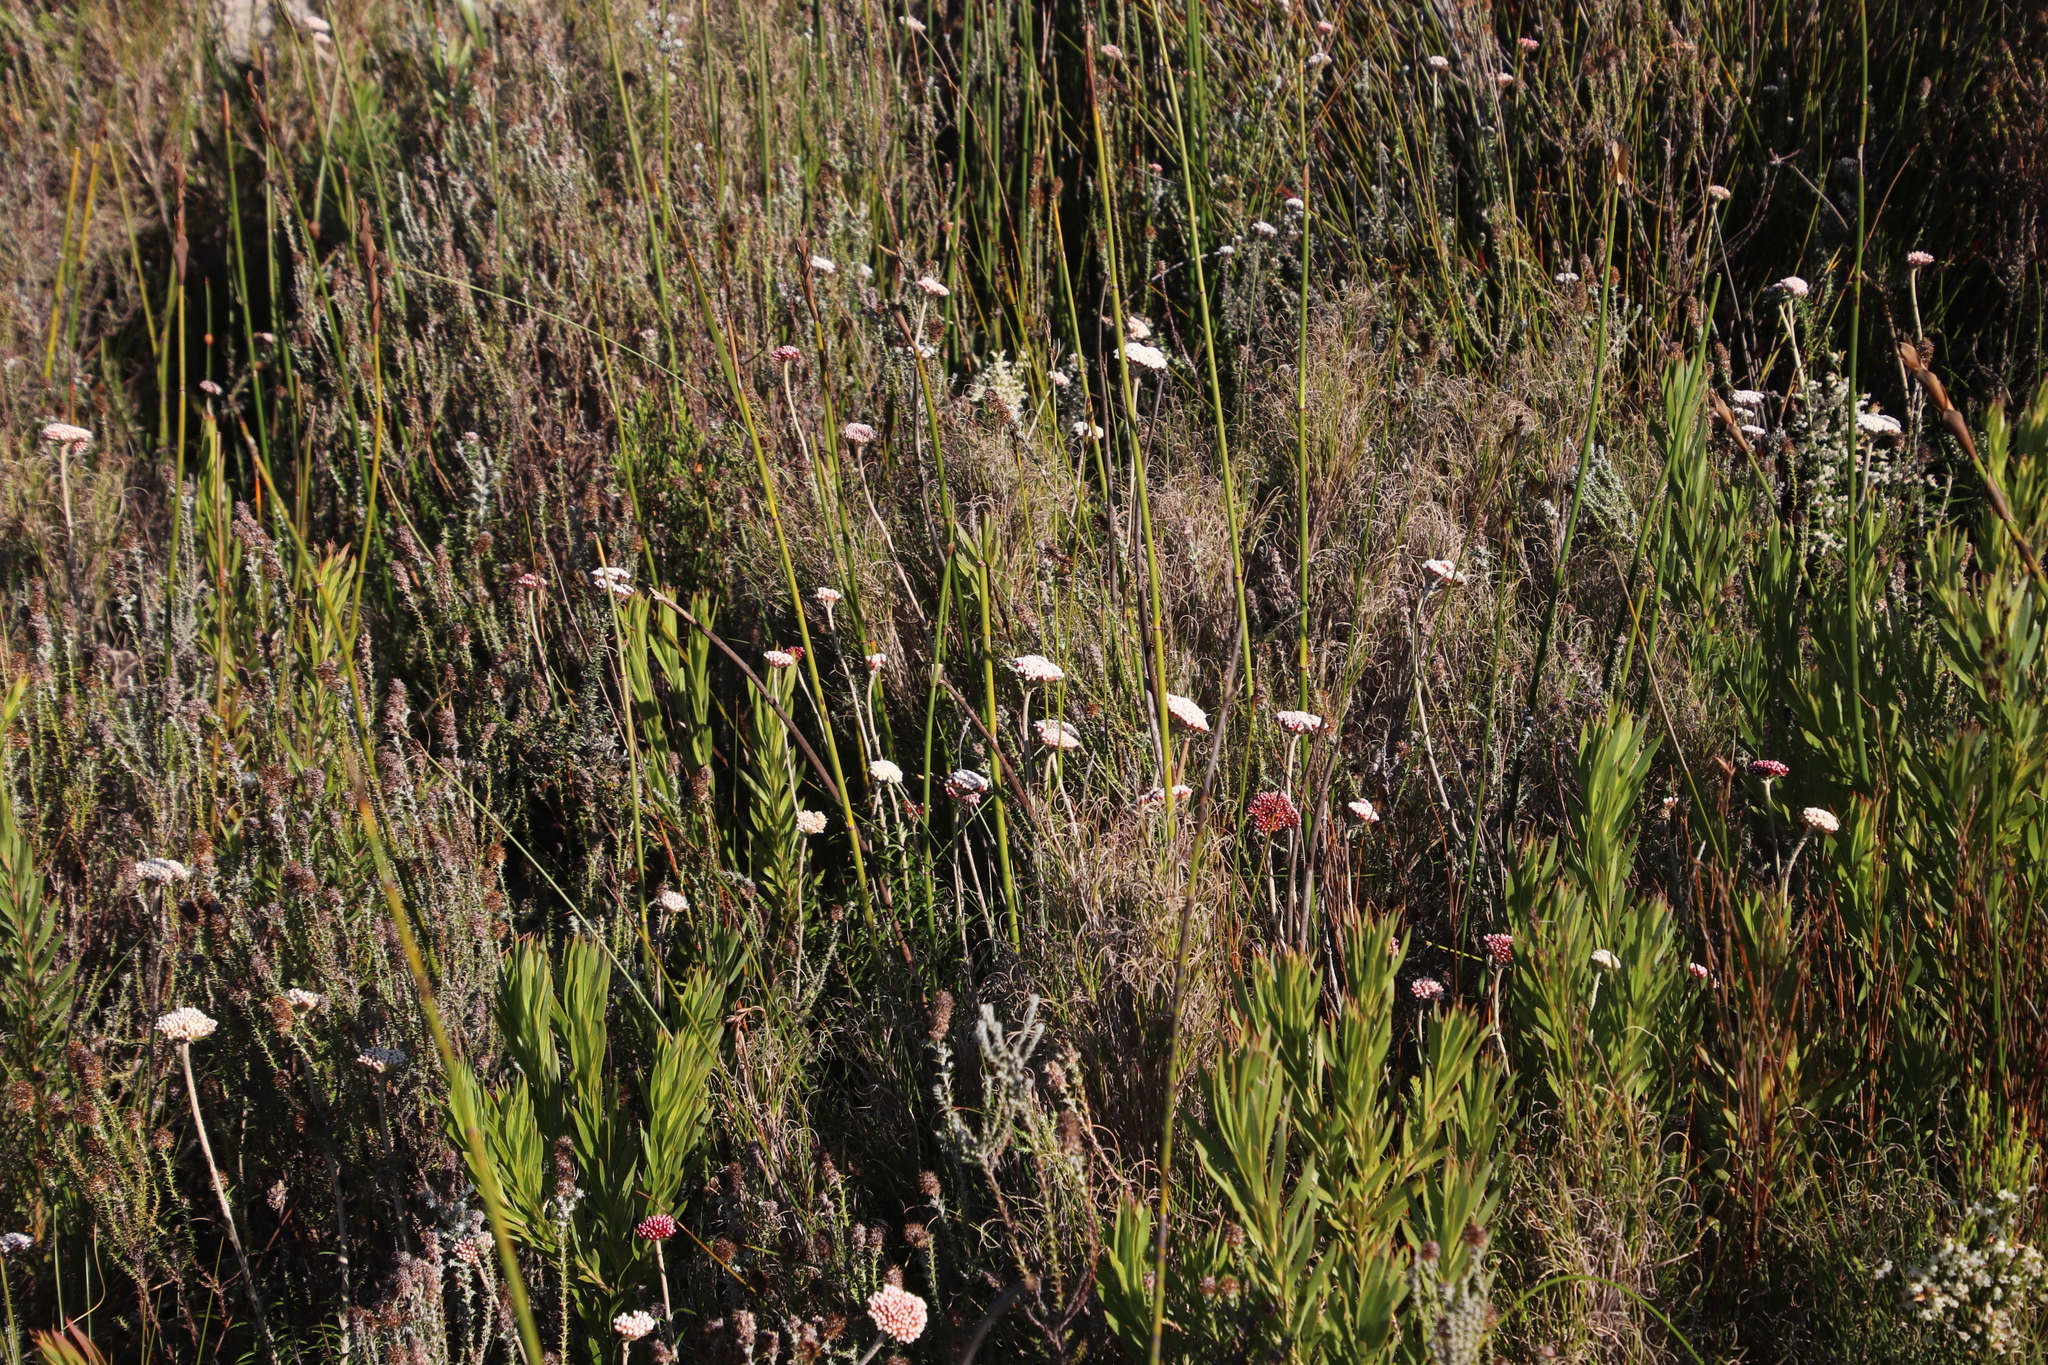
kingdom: Plantae
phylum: Tracheophyta
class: Magnoliopsida
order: Asterales
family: Asteraceae
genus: Anaxeton
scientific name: Anaxeton arborescens
